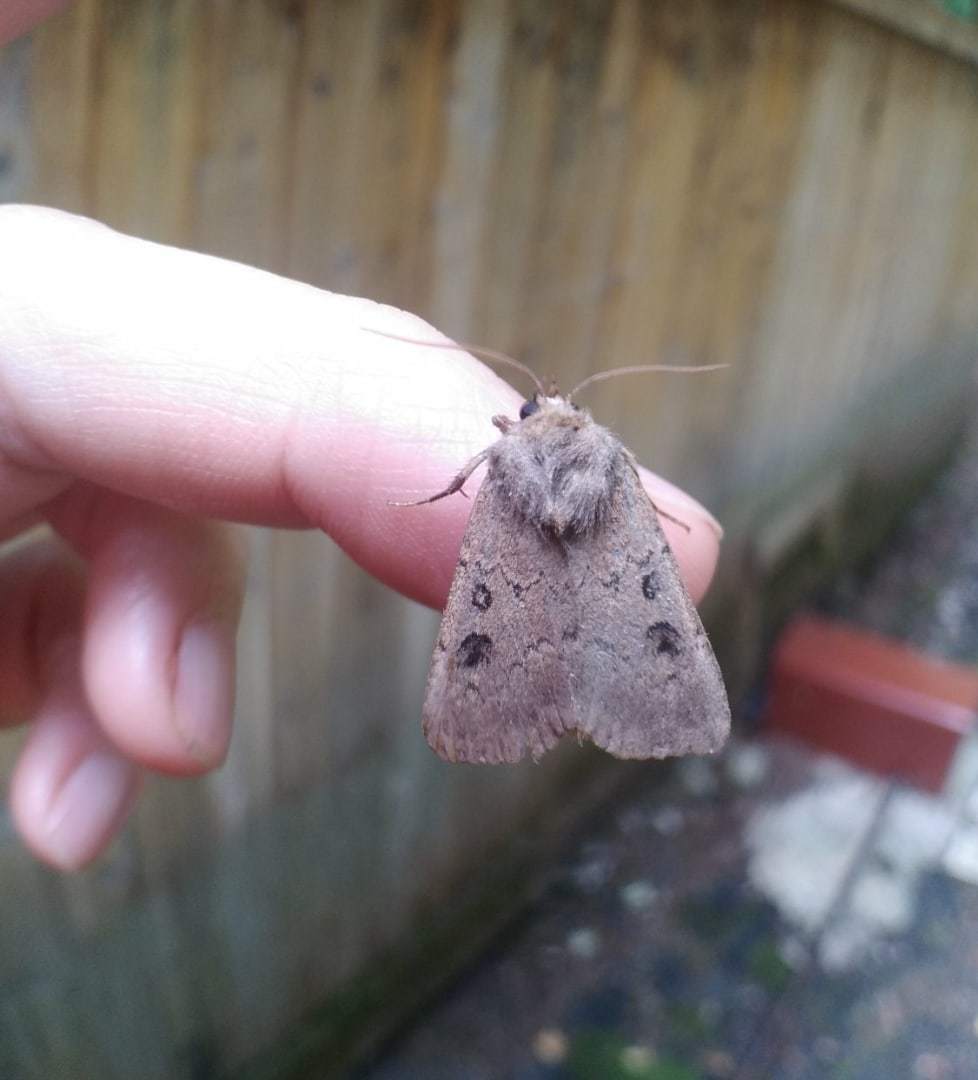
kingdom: Animalia
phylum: Arthropoda
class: Insecta
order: Lepidoptera
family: Noctuidae
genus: Graphiphora
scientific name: Graphiphora augur
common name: Double dart
